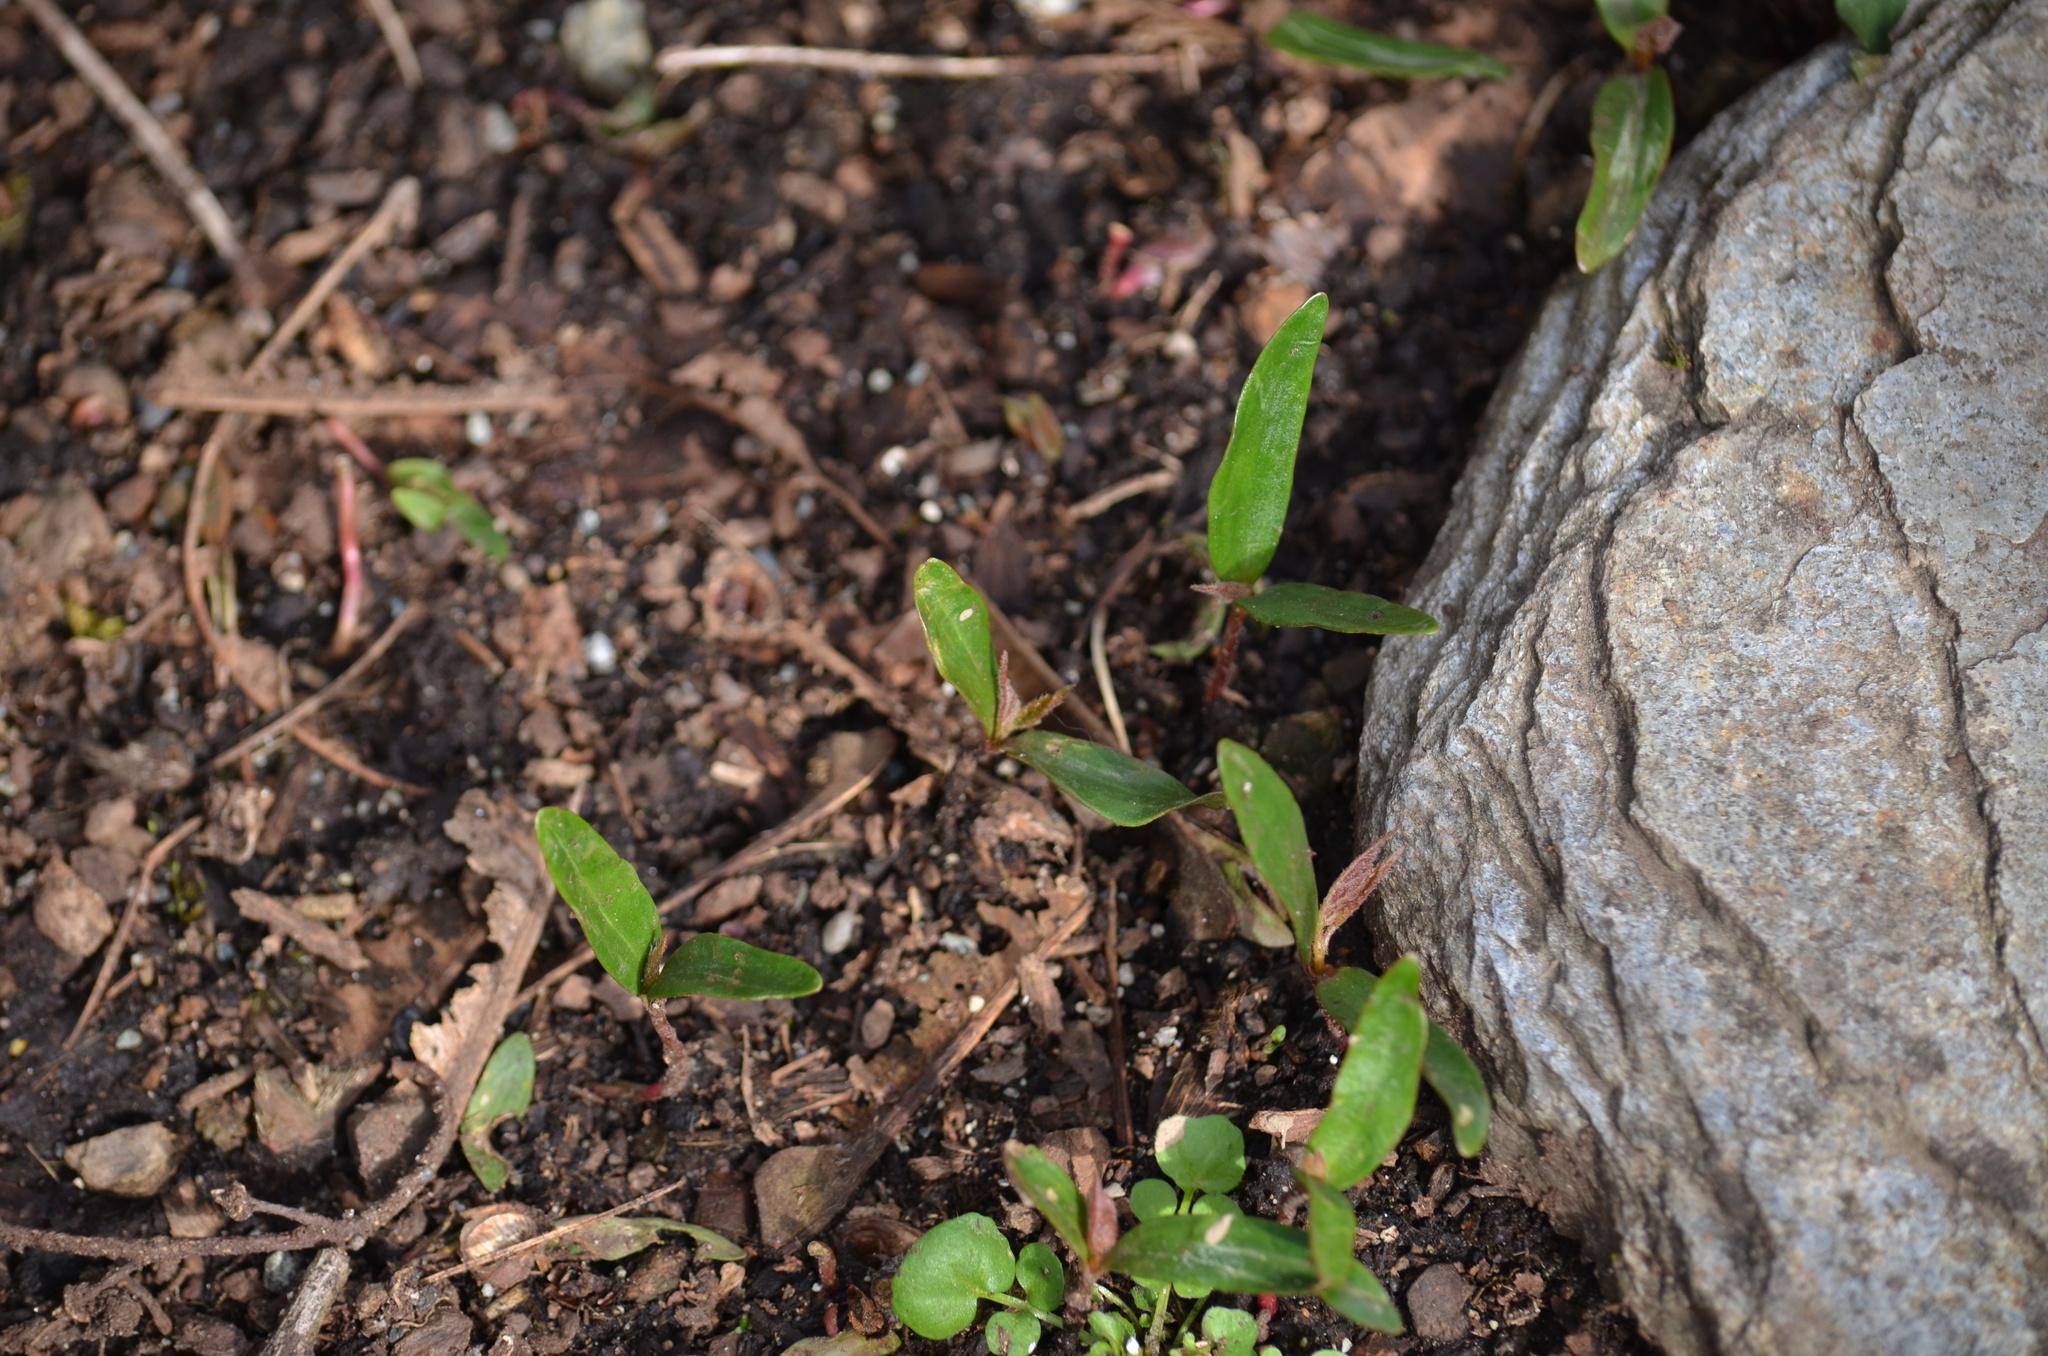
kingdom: Plantae
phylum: Tracheophyta
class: Magnoliopsida
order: Sapindales
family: Sapindaceae
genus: Acer
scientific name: Acer macrophyllum
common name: Oregon maple
